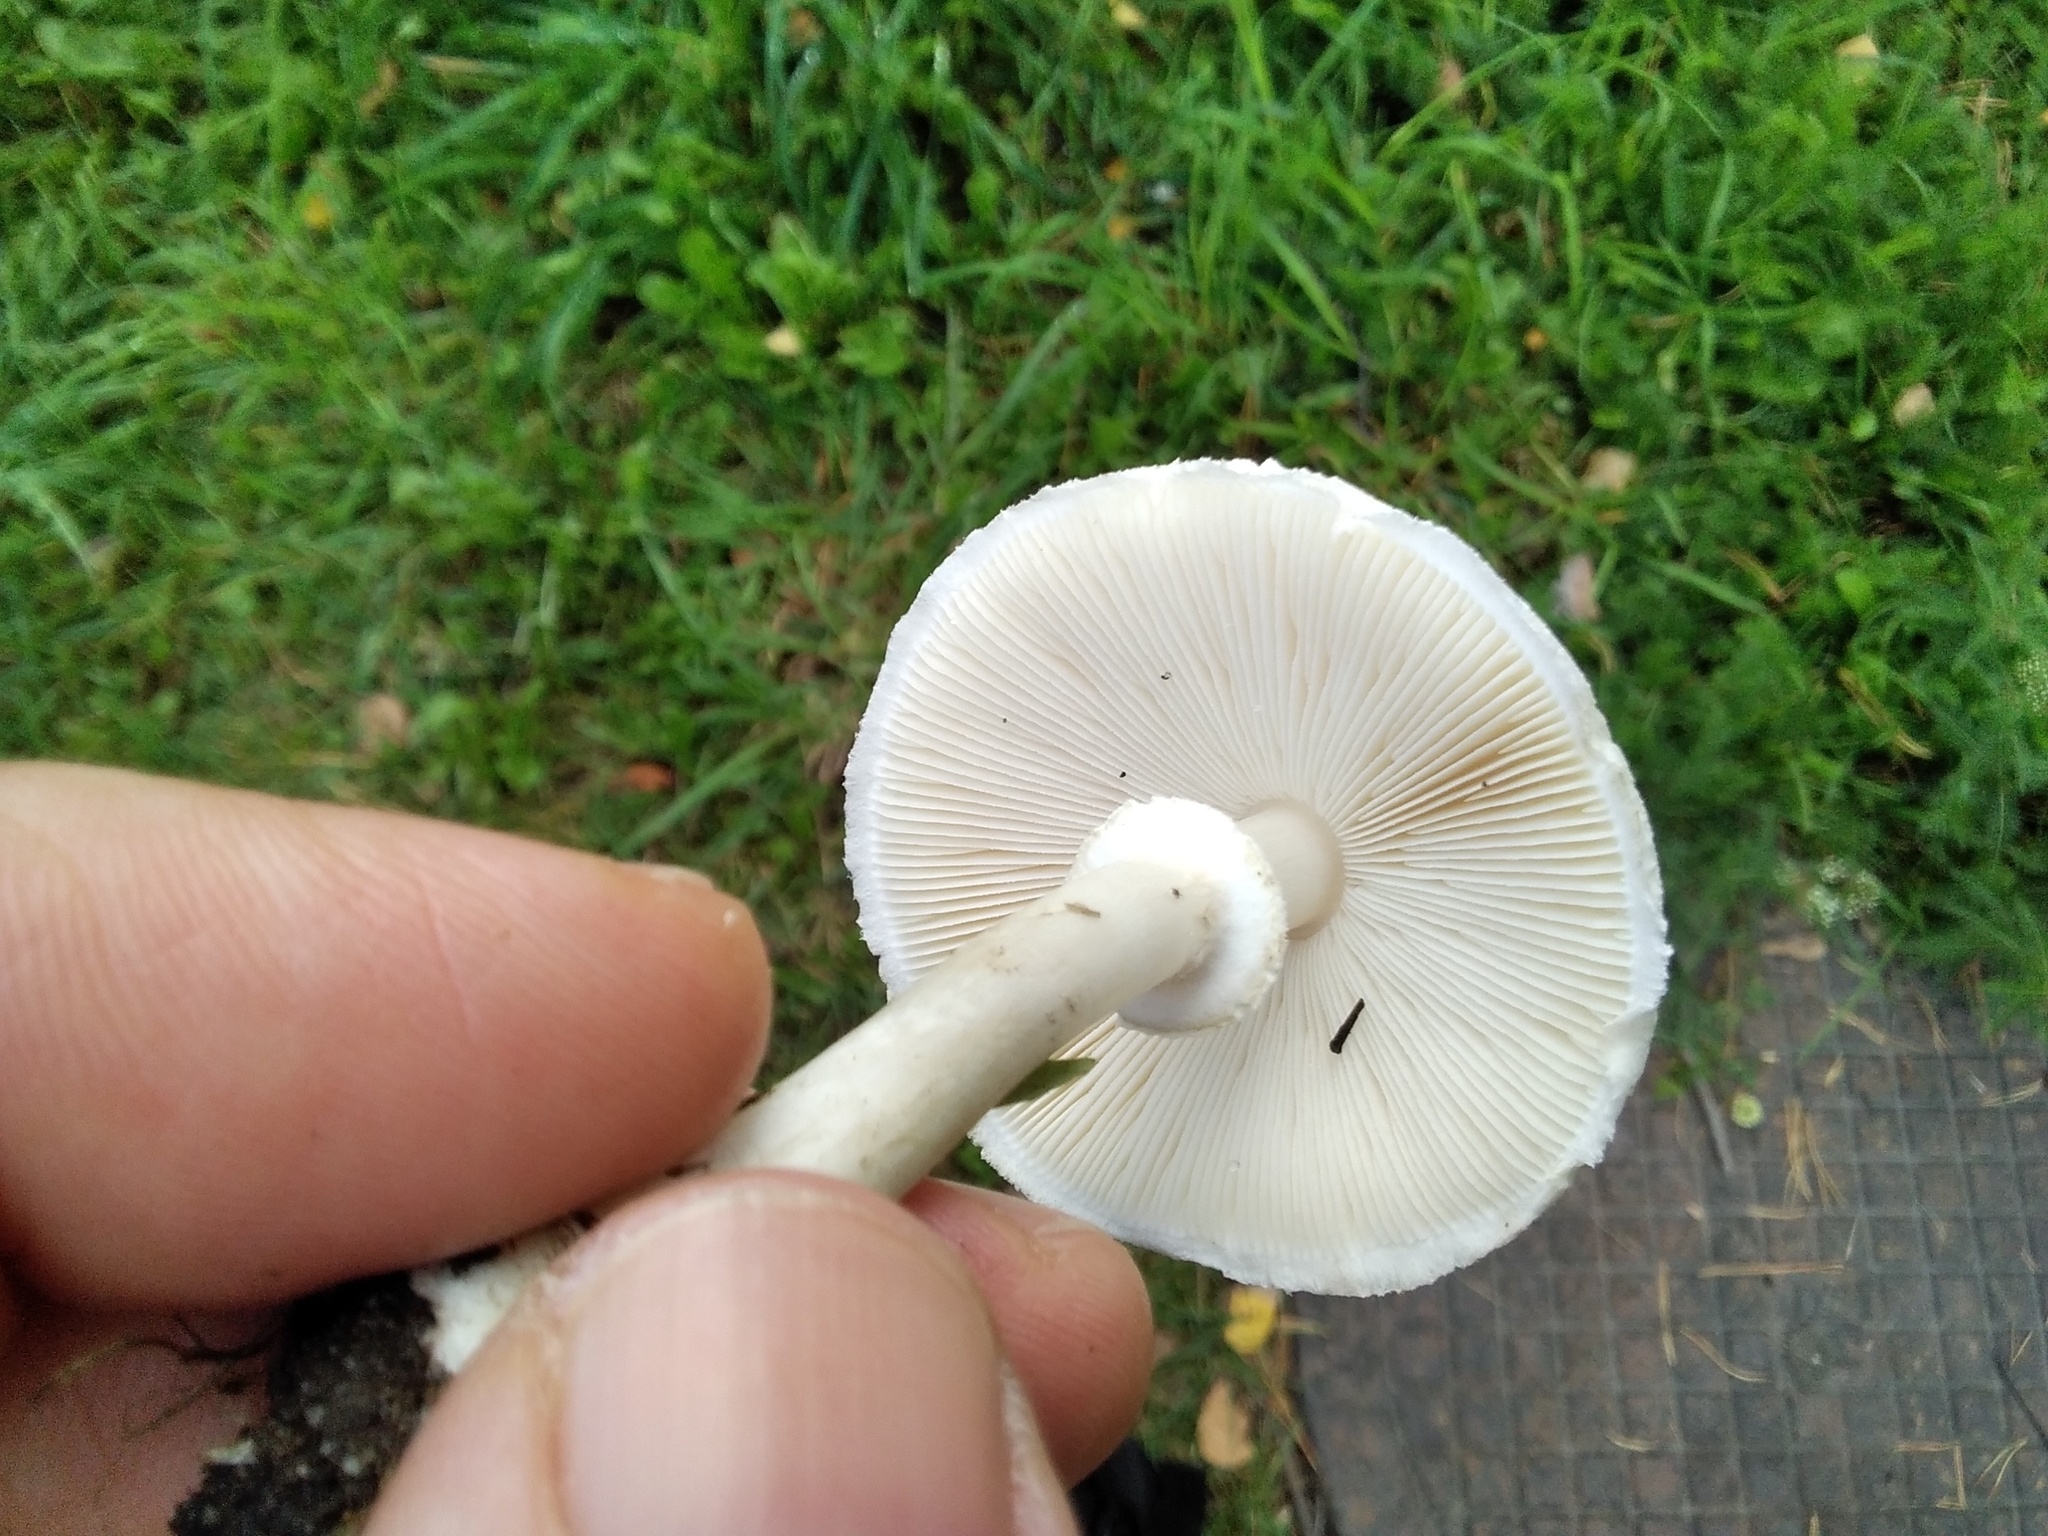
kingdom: Fungi
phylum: Basidiomycota
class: Agaricomycetes
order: Agaricales
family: Agaricaceae
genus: Leucoagaricus
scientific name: Leucoagaricus leucothites
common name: White dapperling
